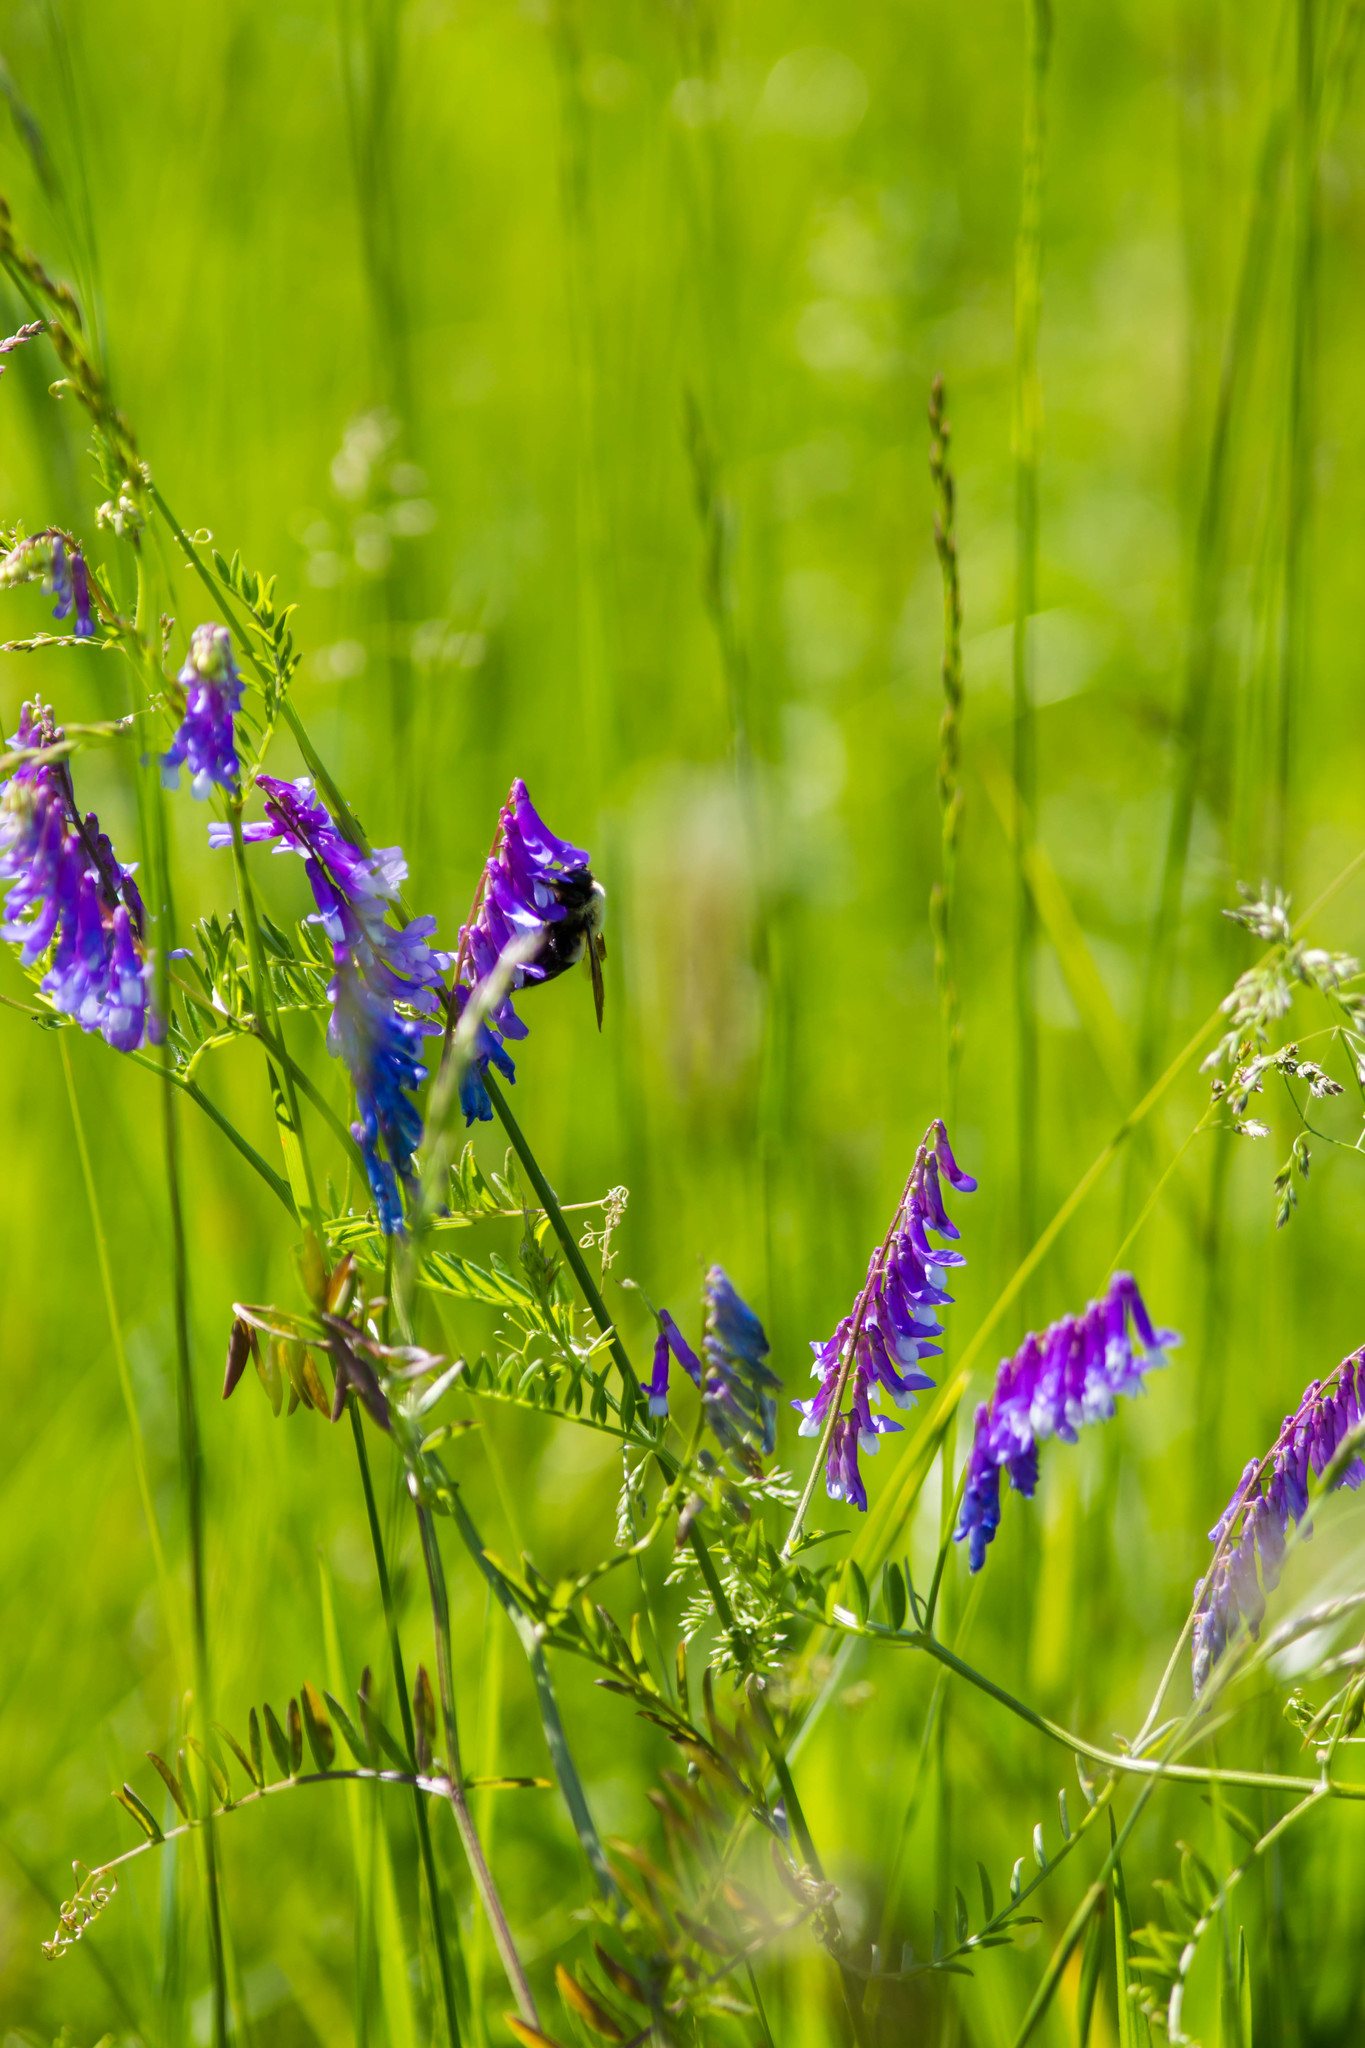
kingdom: Plantae
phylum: Tracheophyta
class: Magnoliopsida
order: Fabales
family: Fabaceae
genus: Vicia
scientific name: Vicia villosa
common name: Fodder vetch
